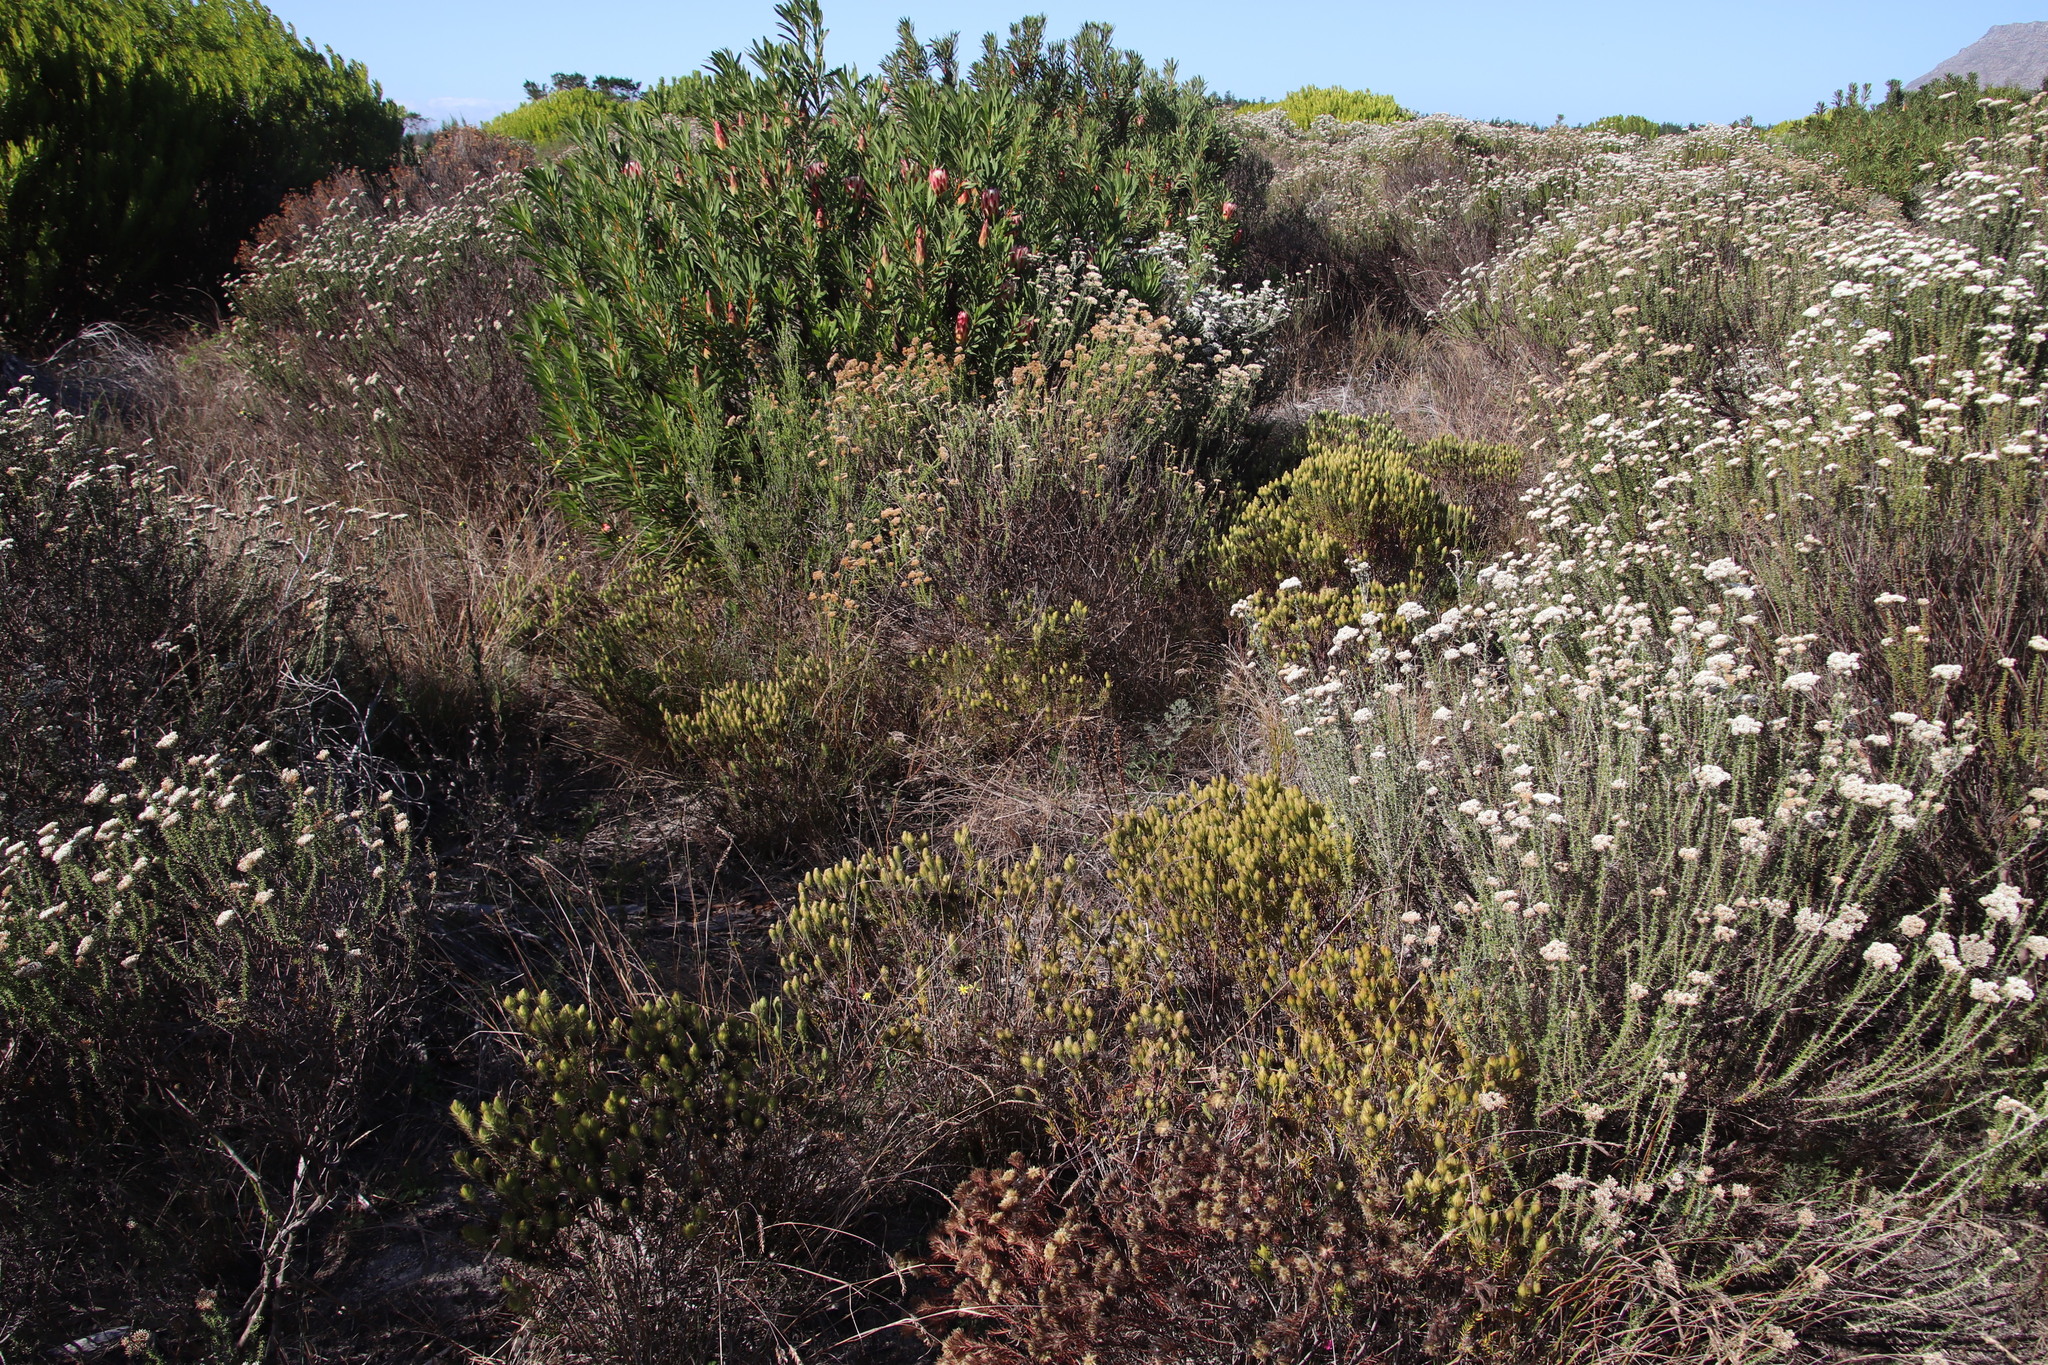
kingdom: Plantae
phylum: Tracheophyta
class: Magnoliopsida
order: Rosales
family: Rhamnaceae
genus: Phylica
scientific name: Phylica pubescens
